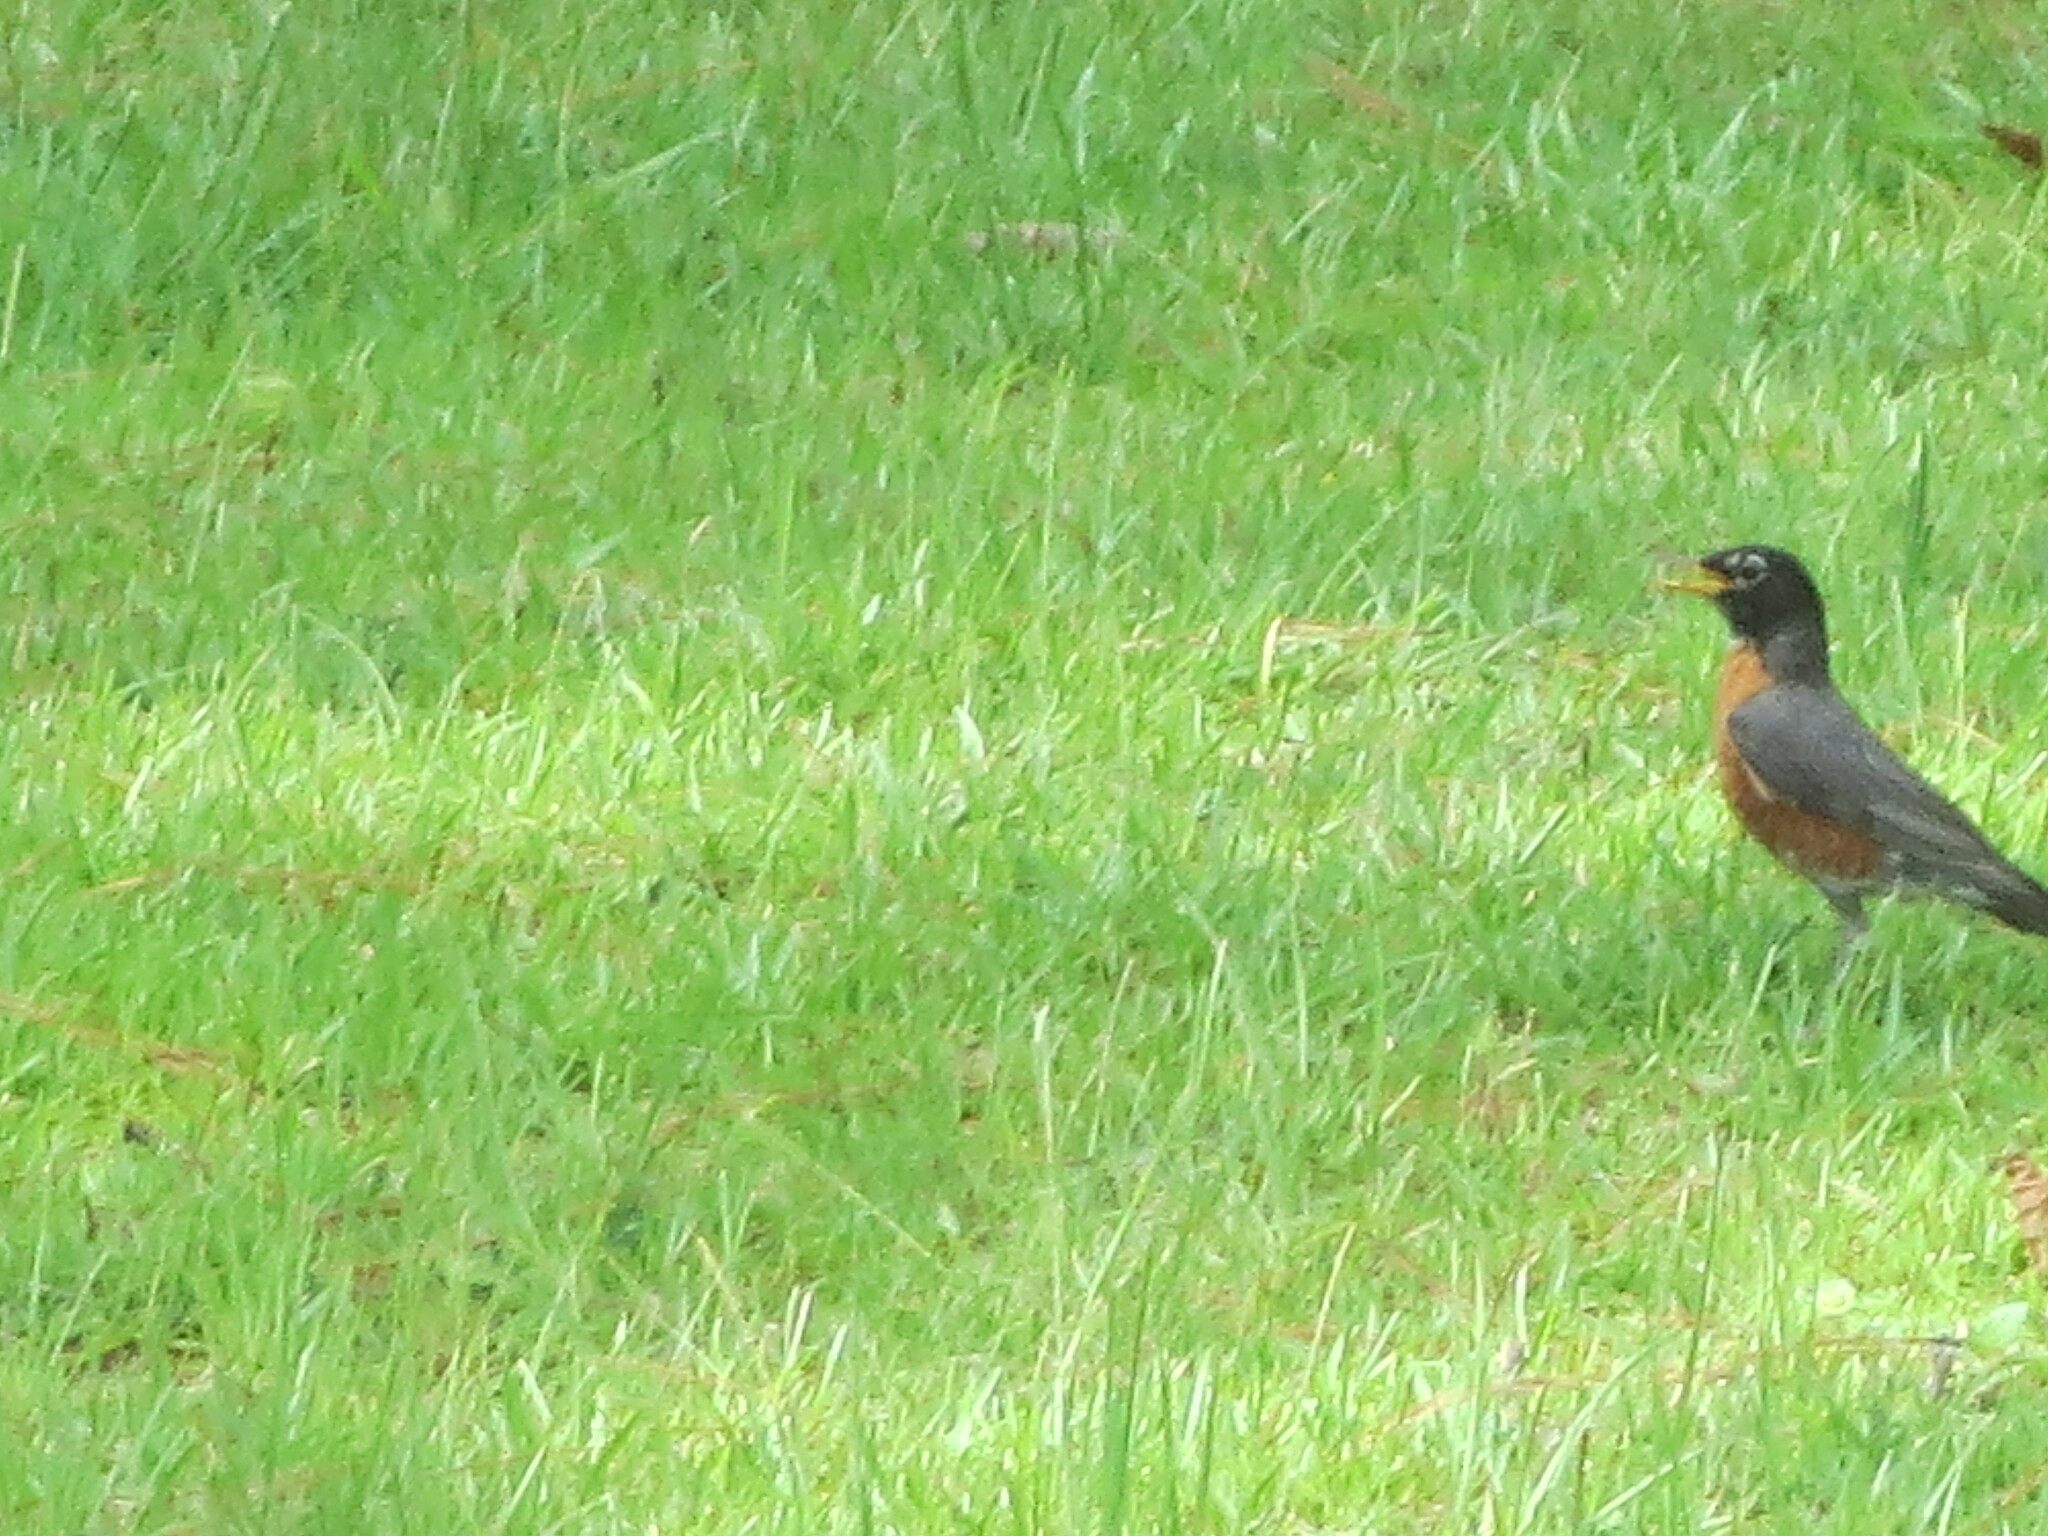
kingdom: Animalia
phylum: Chordata
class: Aves
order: Passeriformes
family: Turdidae
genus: Turdus
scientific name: Turdus migratorius
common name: American robin
